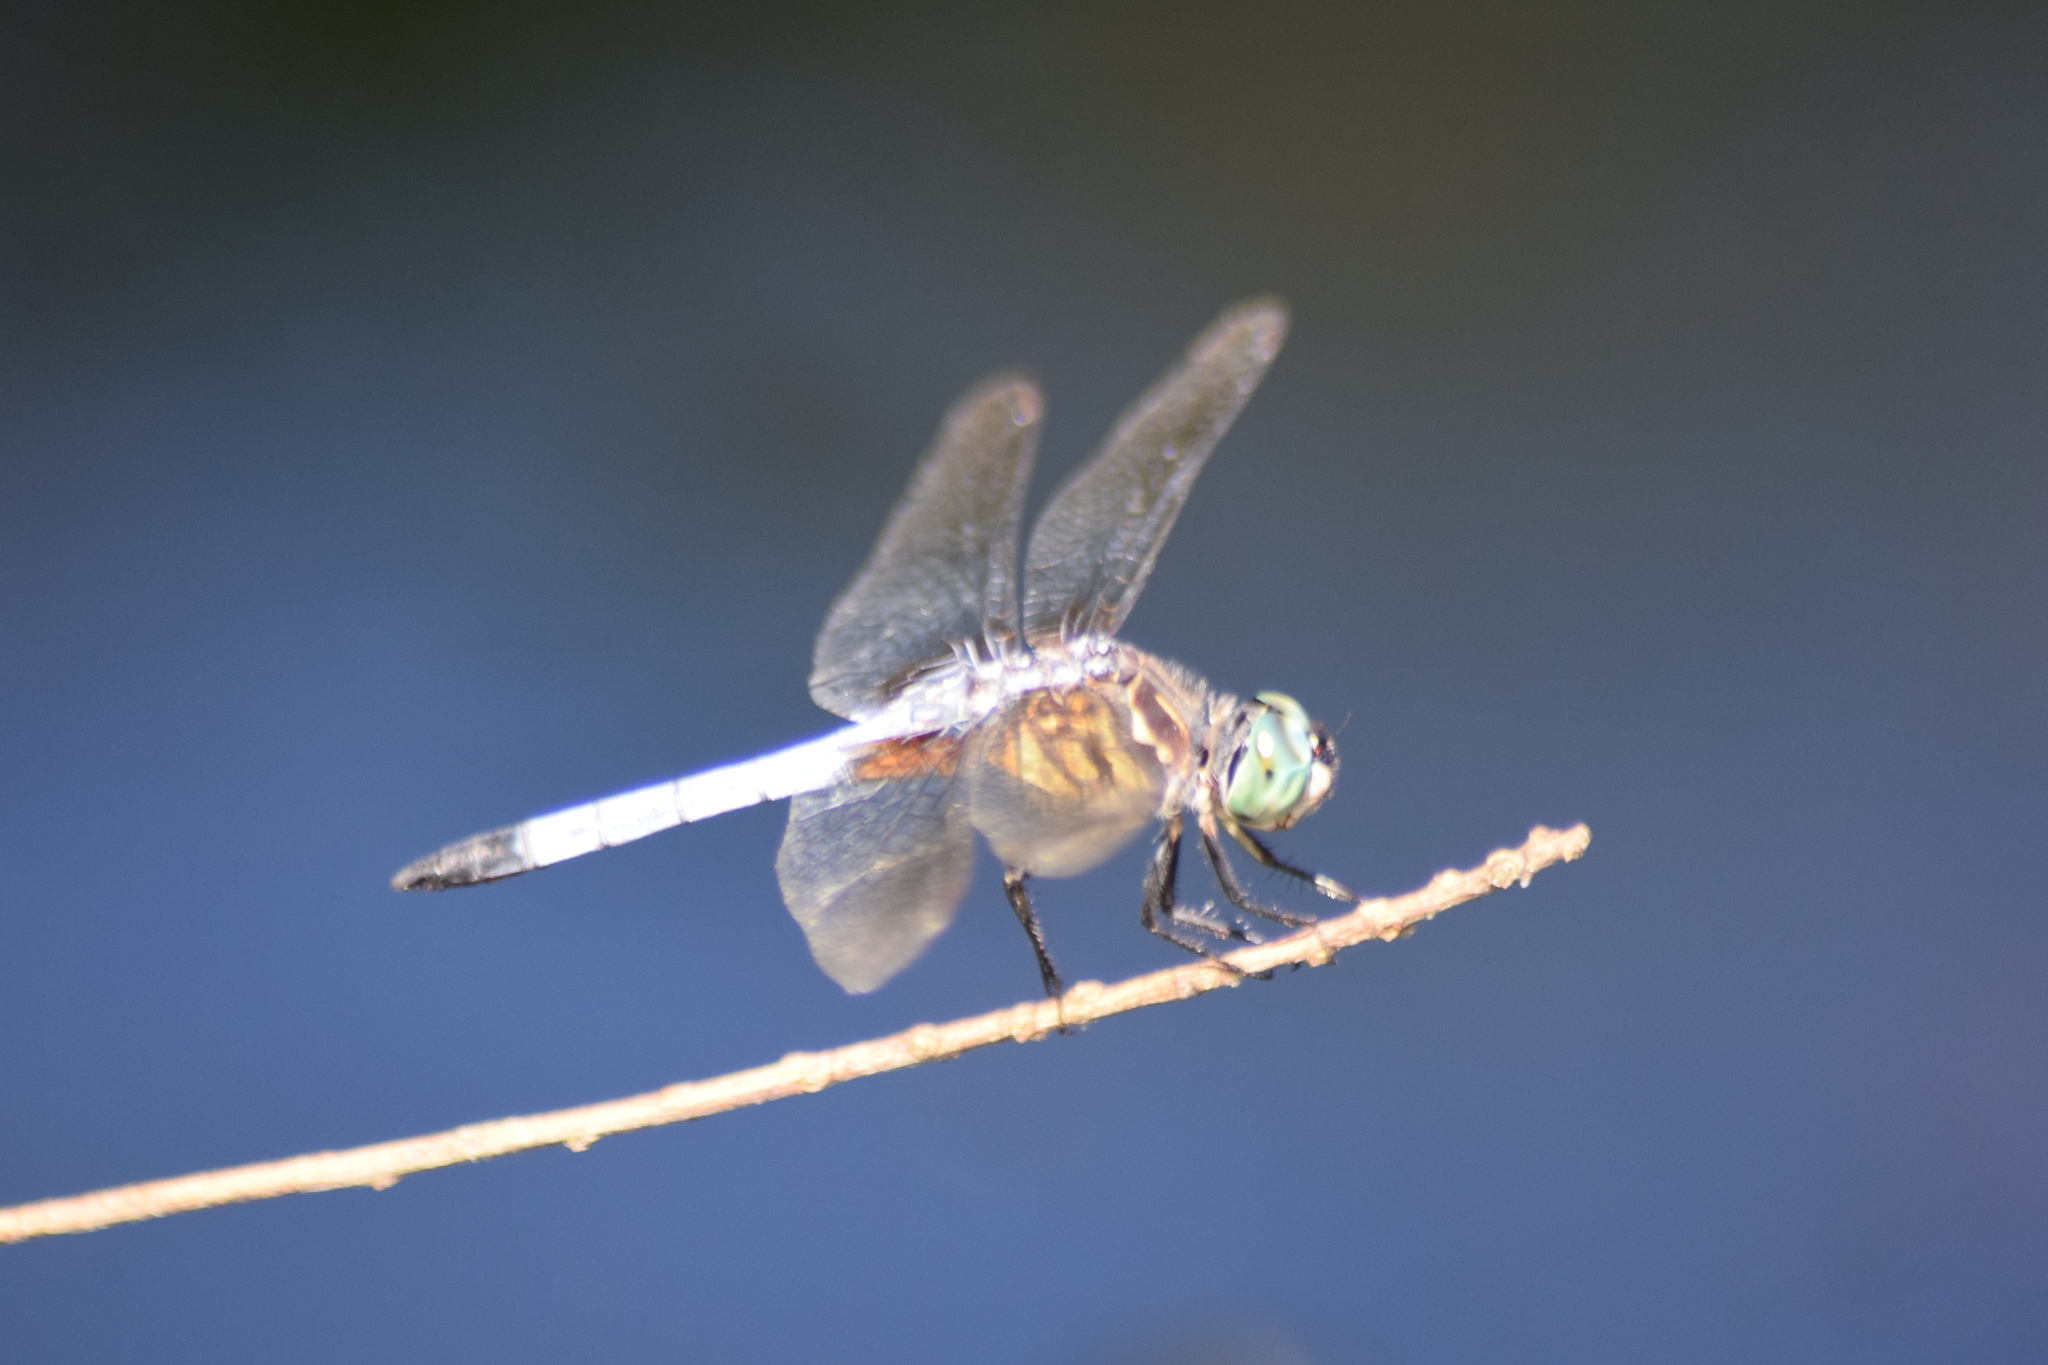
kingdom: Animalia
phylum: Arthropoda
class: Insecta
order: Odonata
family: Libellulidae
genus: Pachydiplax
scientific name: Pachydiplax longipennis
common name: Blue dasher
